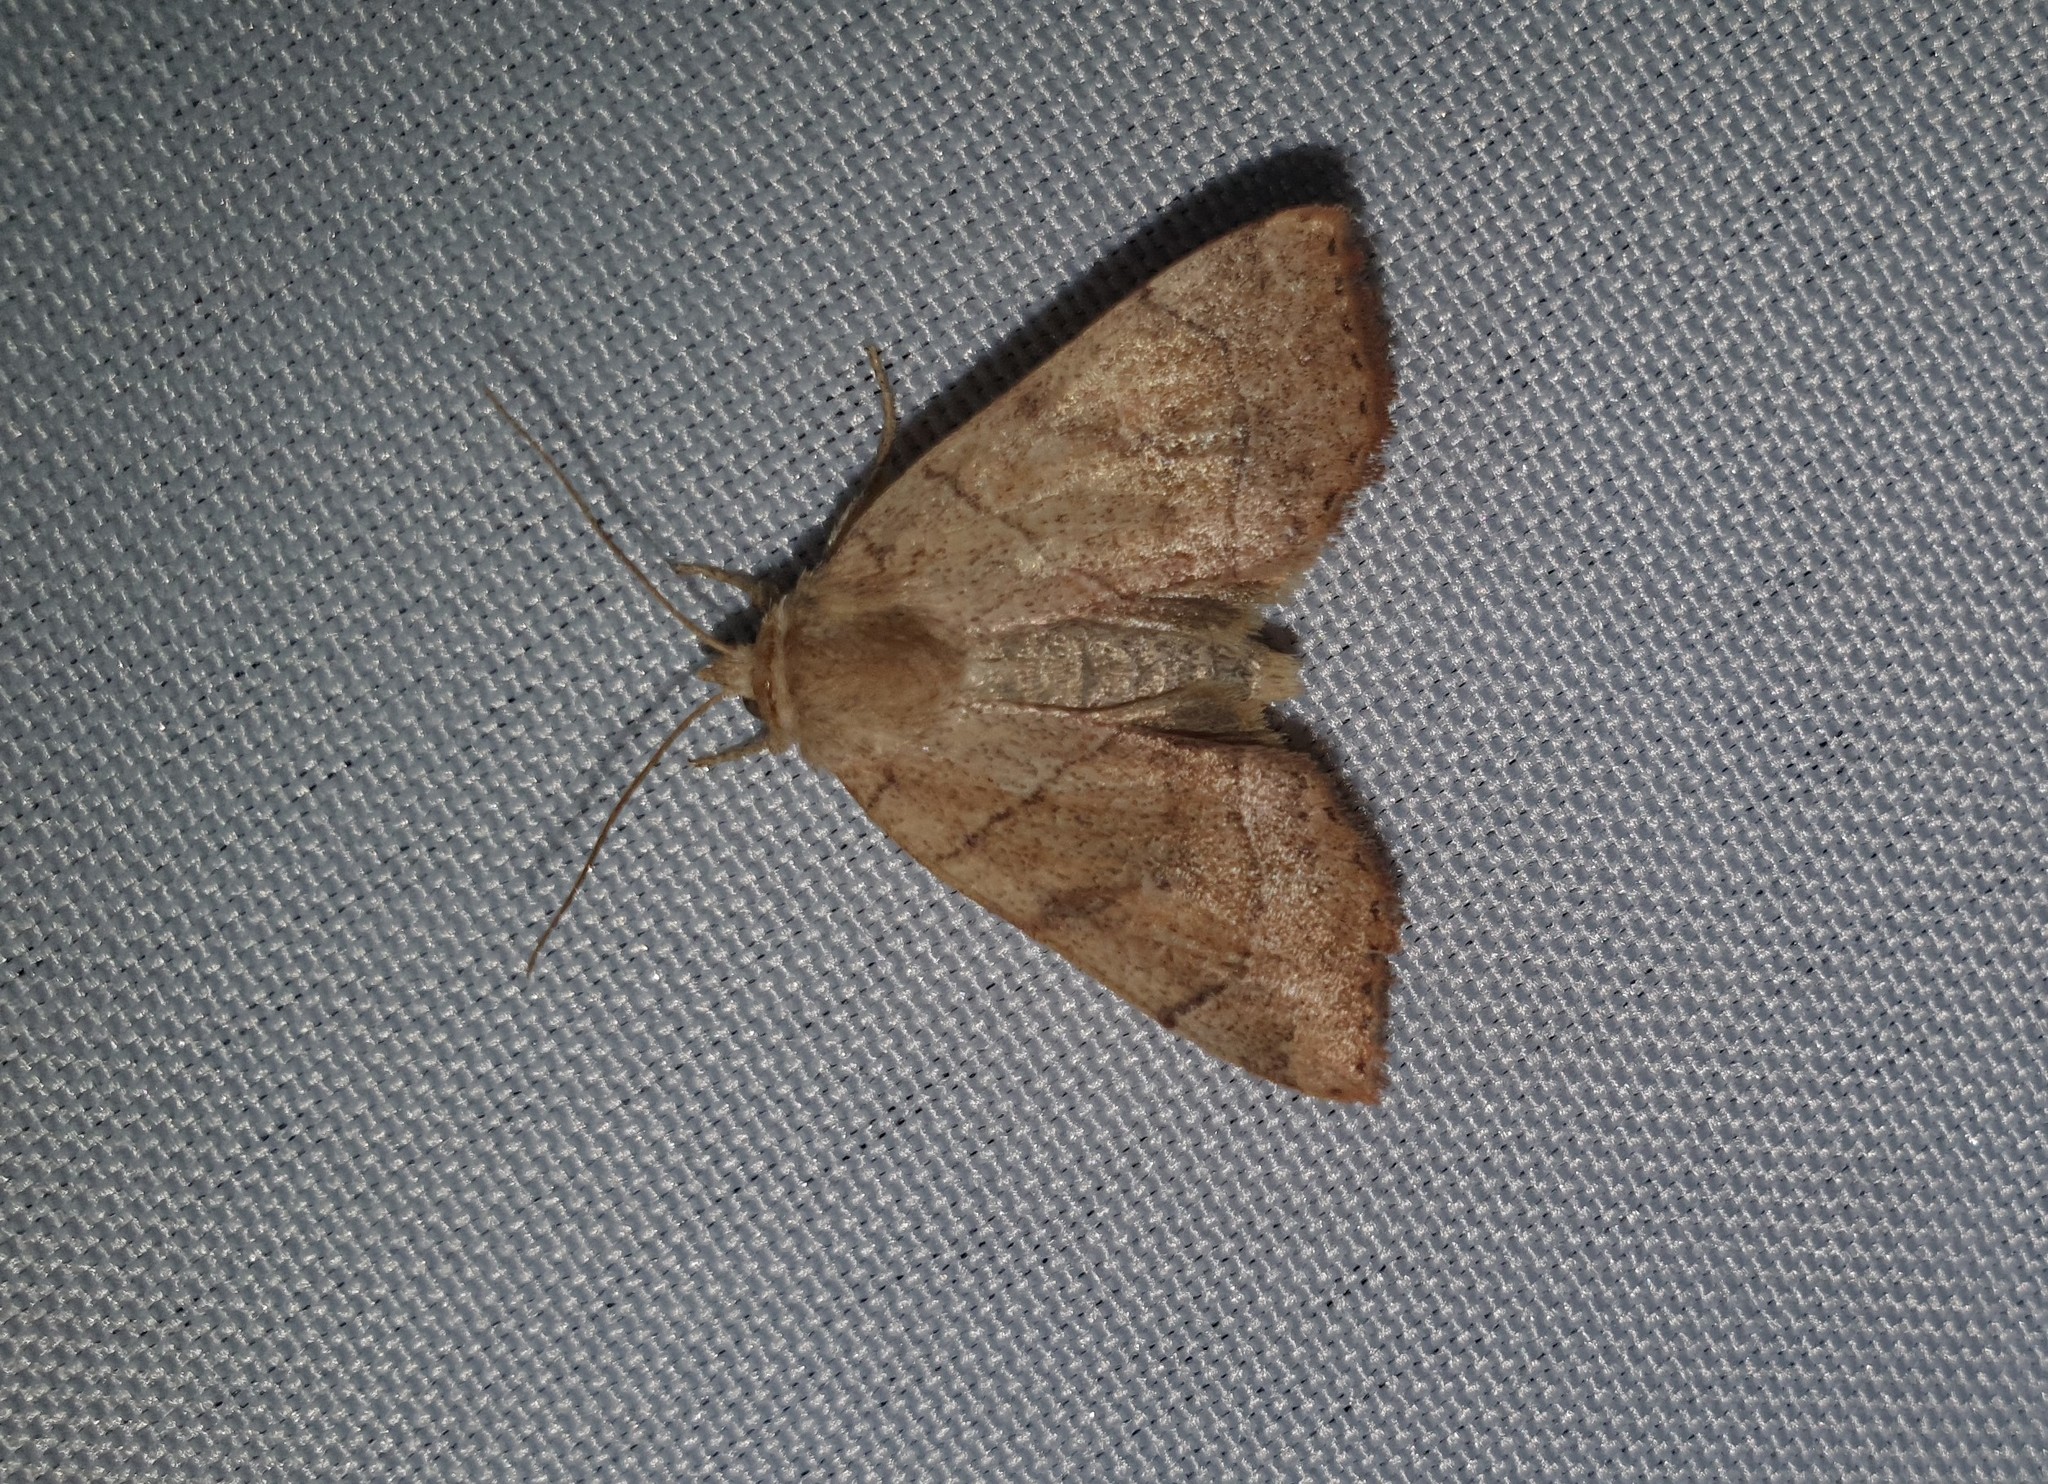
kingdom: Animalia
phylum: Arthropoda
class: Insecta
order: Lepidoptera
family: Noctuidae
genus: Cosmia
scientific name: Cosmia trapezina
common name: Dun-bar
